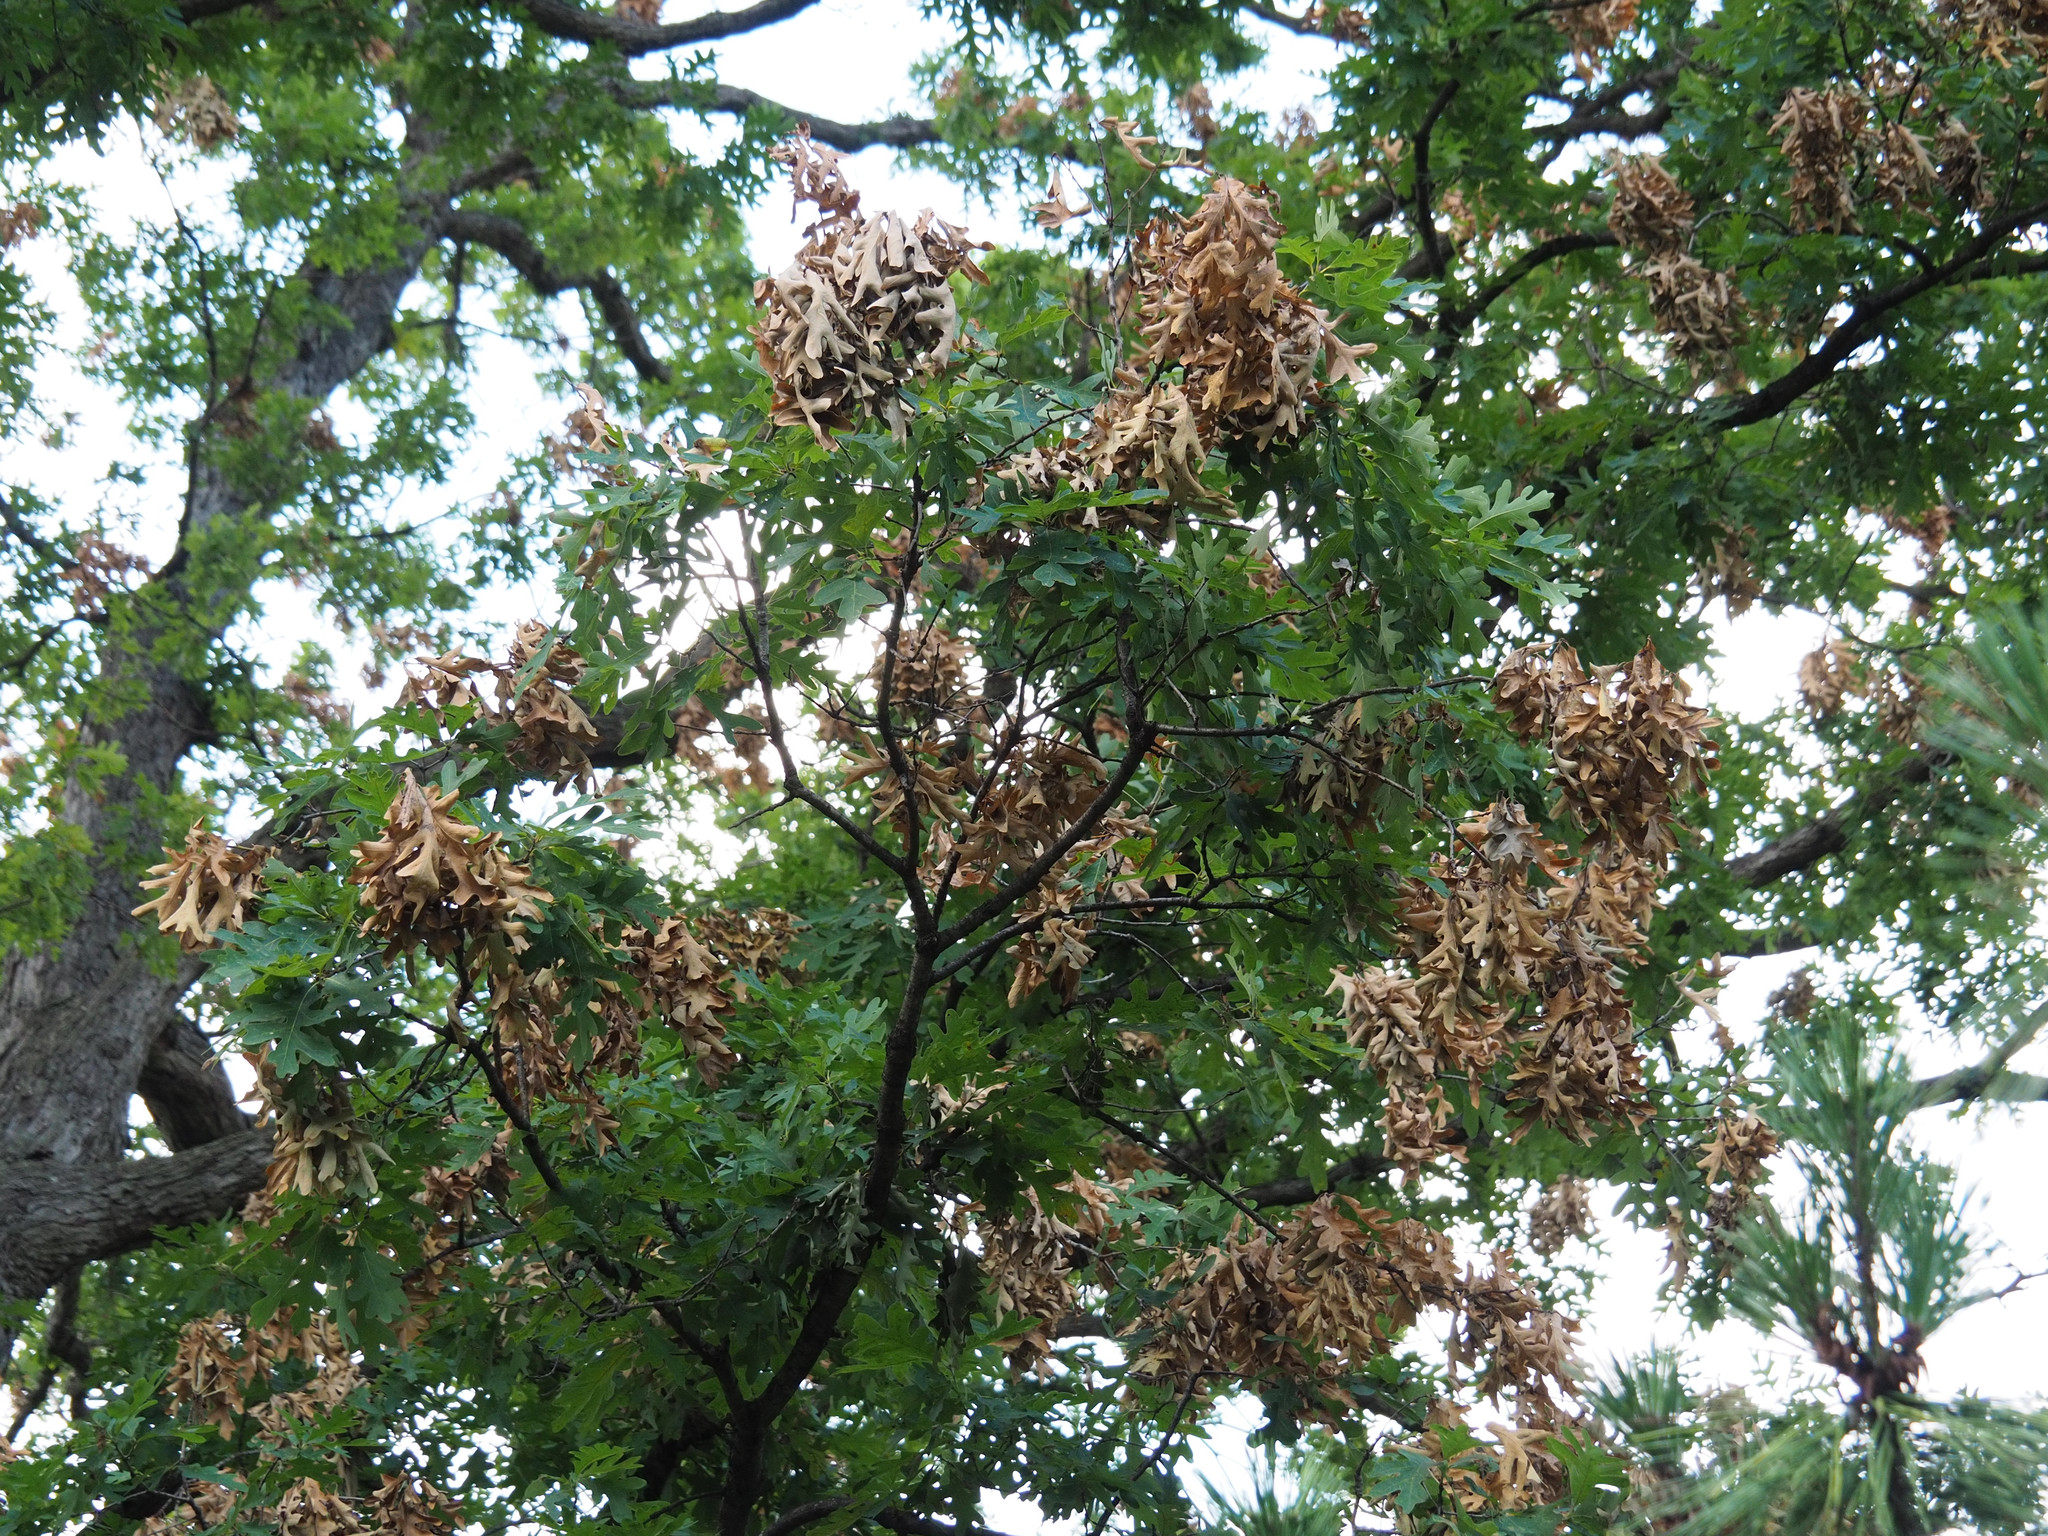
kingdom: Animalia
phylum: Arthropoda
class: Insecta
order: Hemiptera
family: Cicadidae
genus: Magicicada
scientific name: Magicicada
